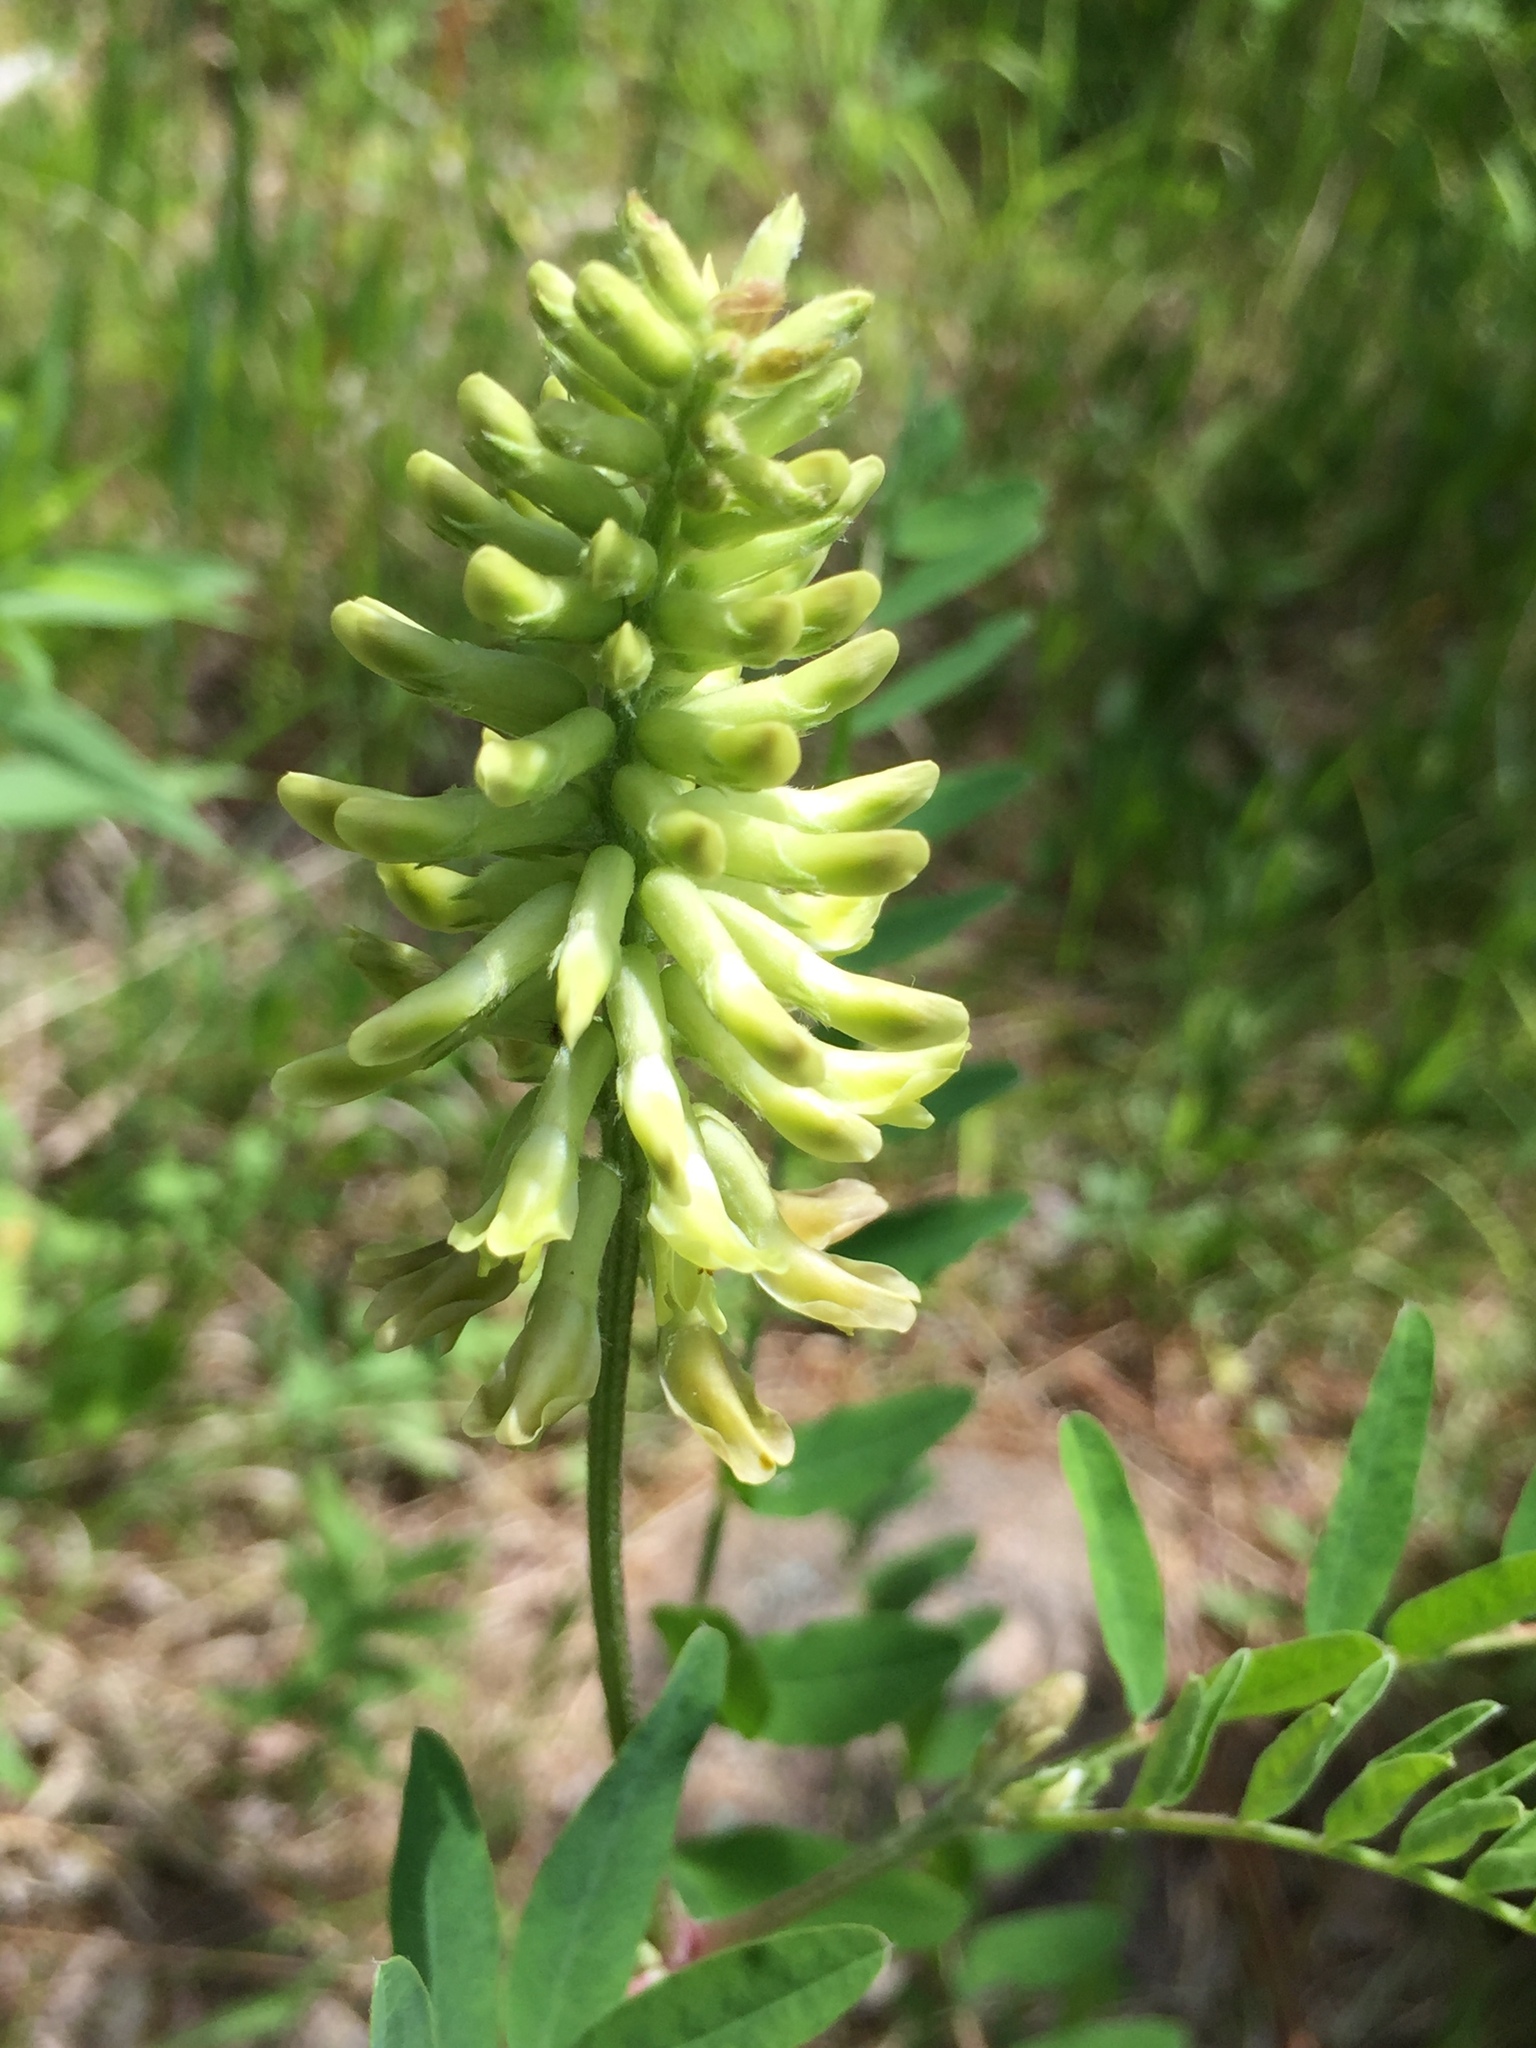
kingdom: Plantae
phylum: Tracheophyta
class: Magnoliopsida
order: Fabales
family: Fabaceae
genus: Astragalus
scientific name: Astragalus canadensis
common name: Canada milk-vetch
